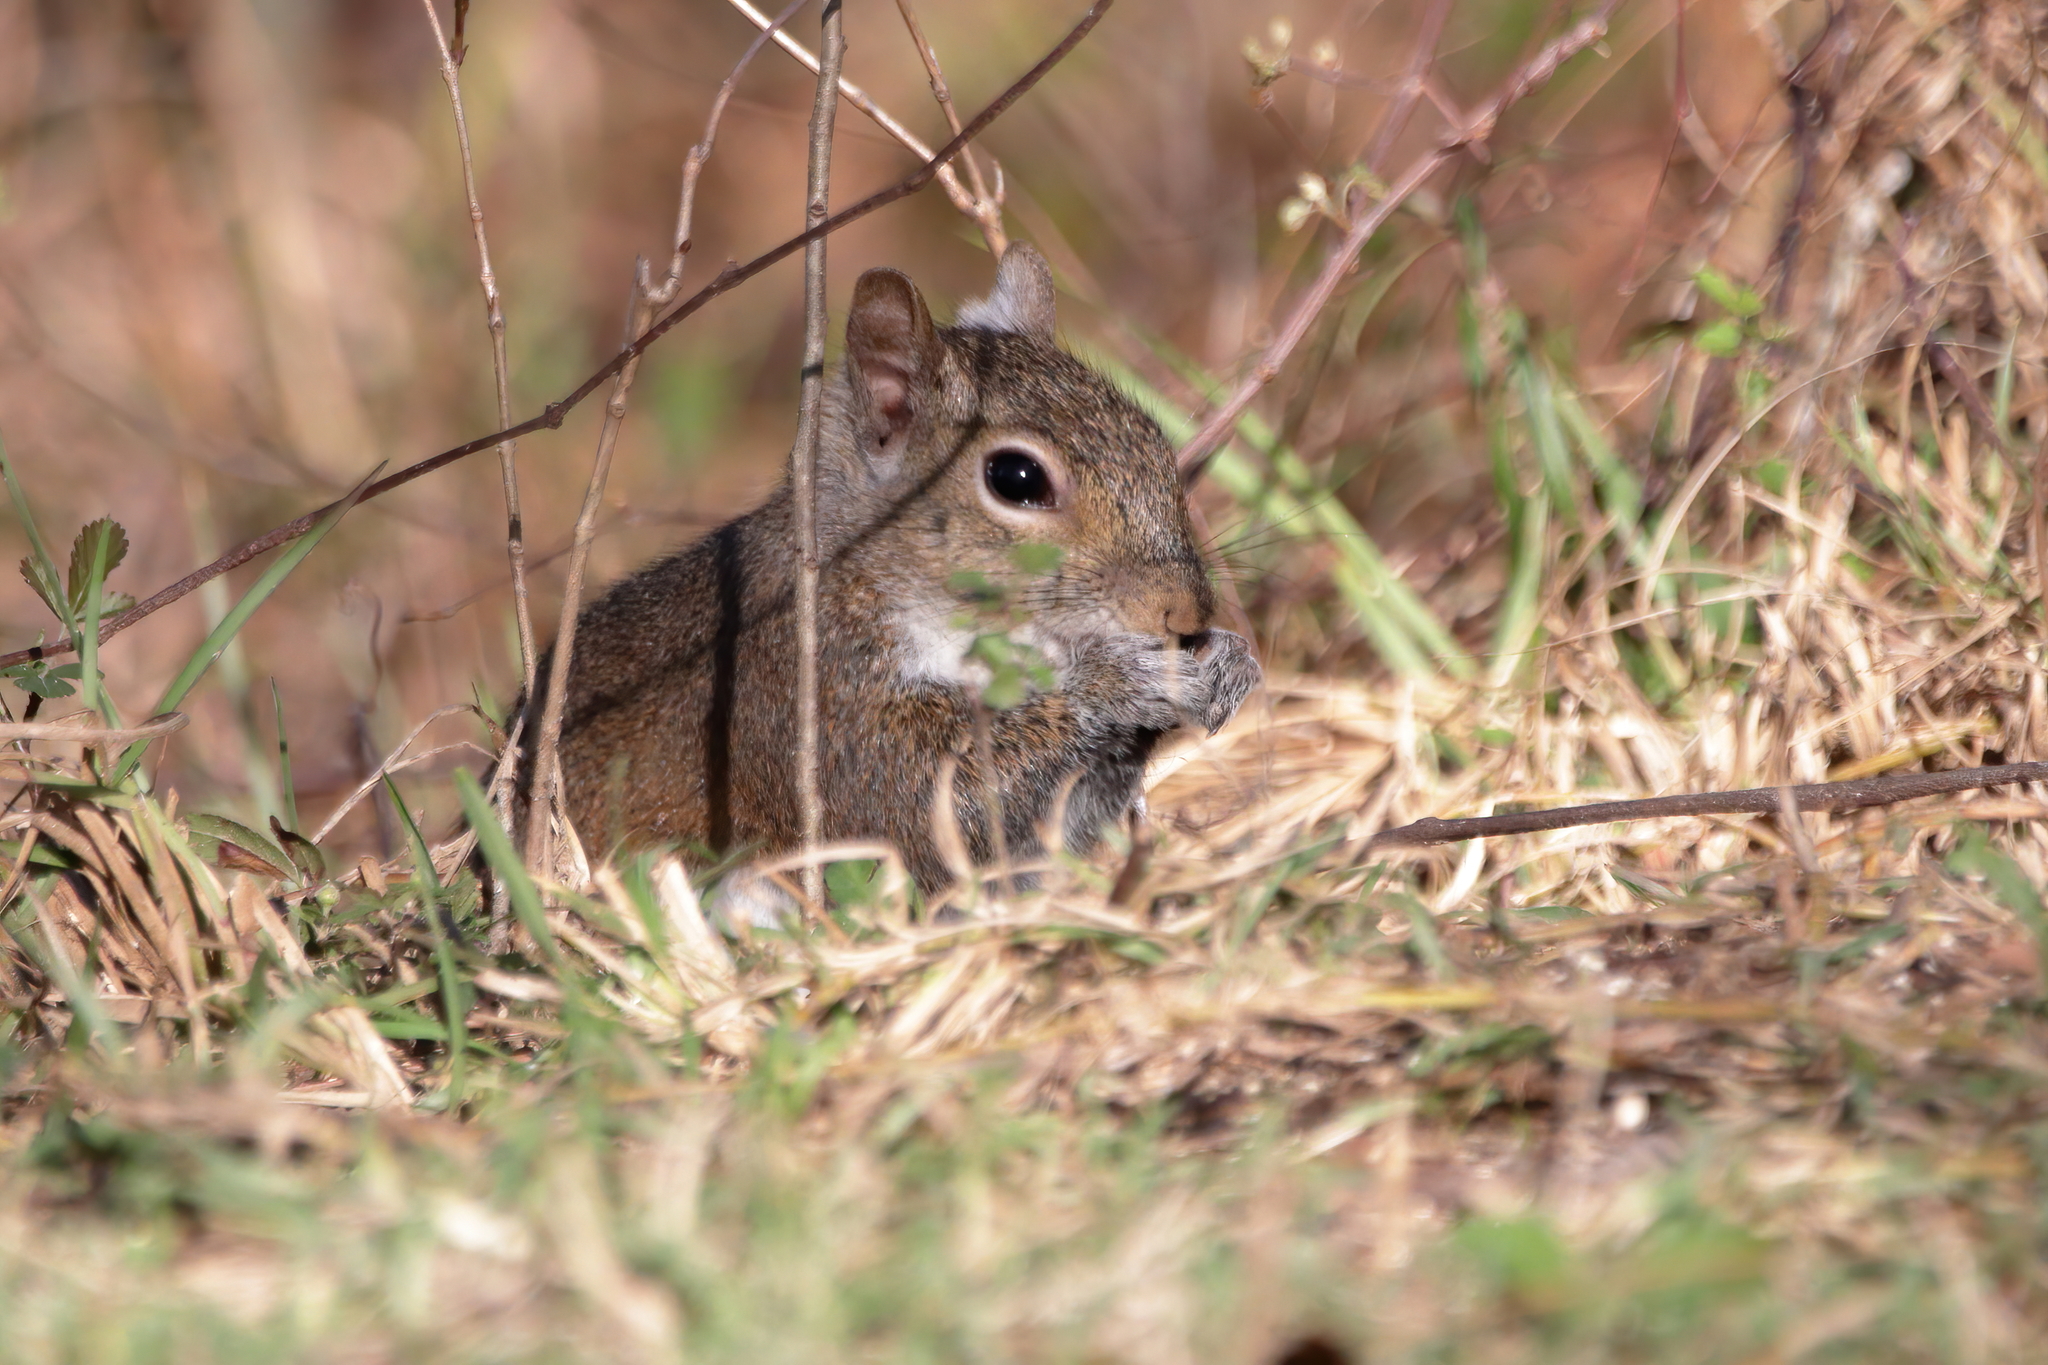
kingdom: Animalia
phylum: Chordata
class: Mammalia
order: Rodentia
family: Sciuridae
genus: Sciurus
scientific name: Sciurus carolinensis
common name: Eastern gray squirrel
